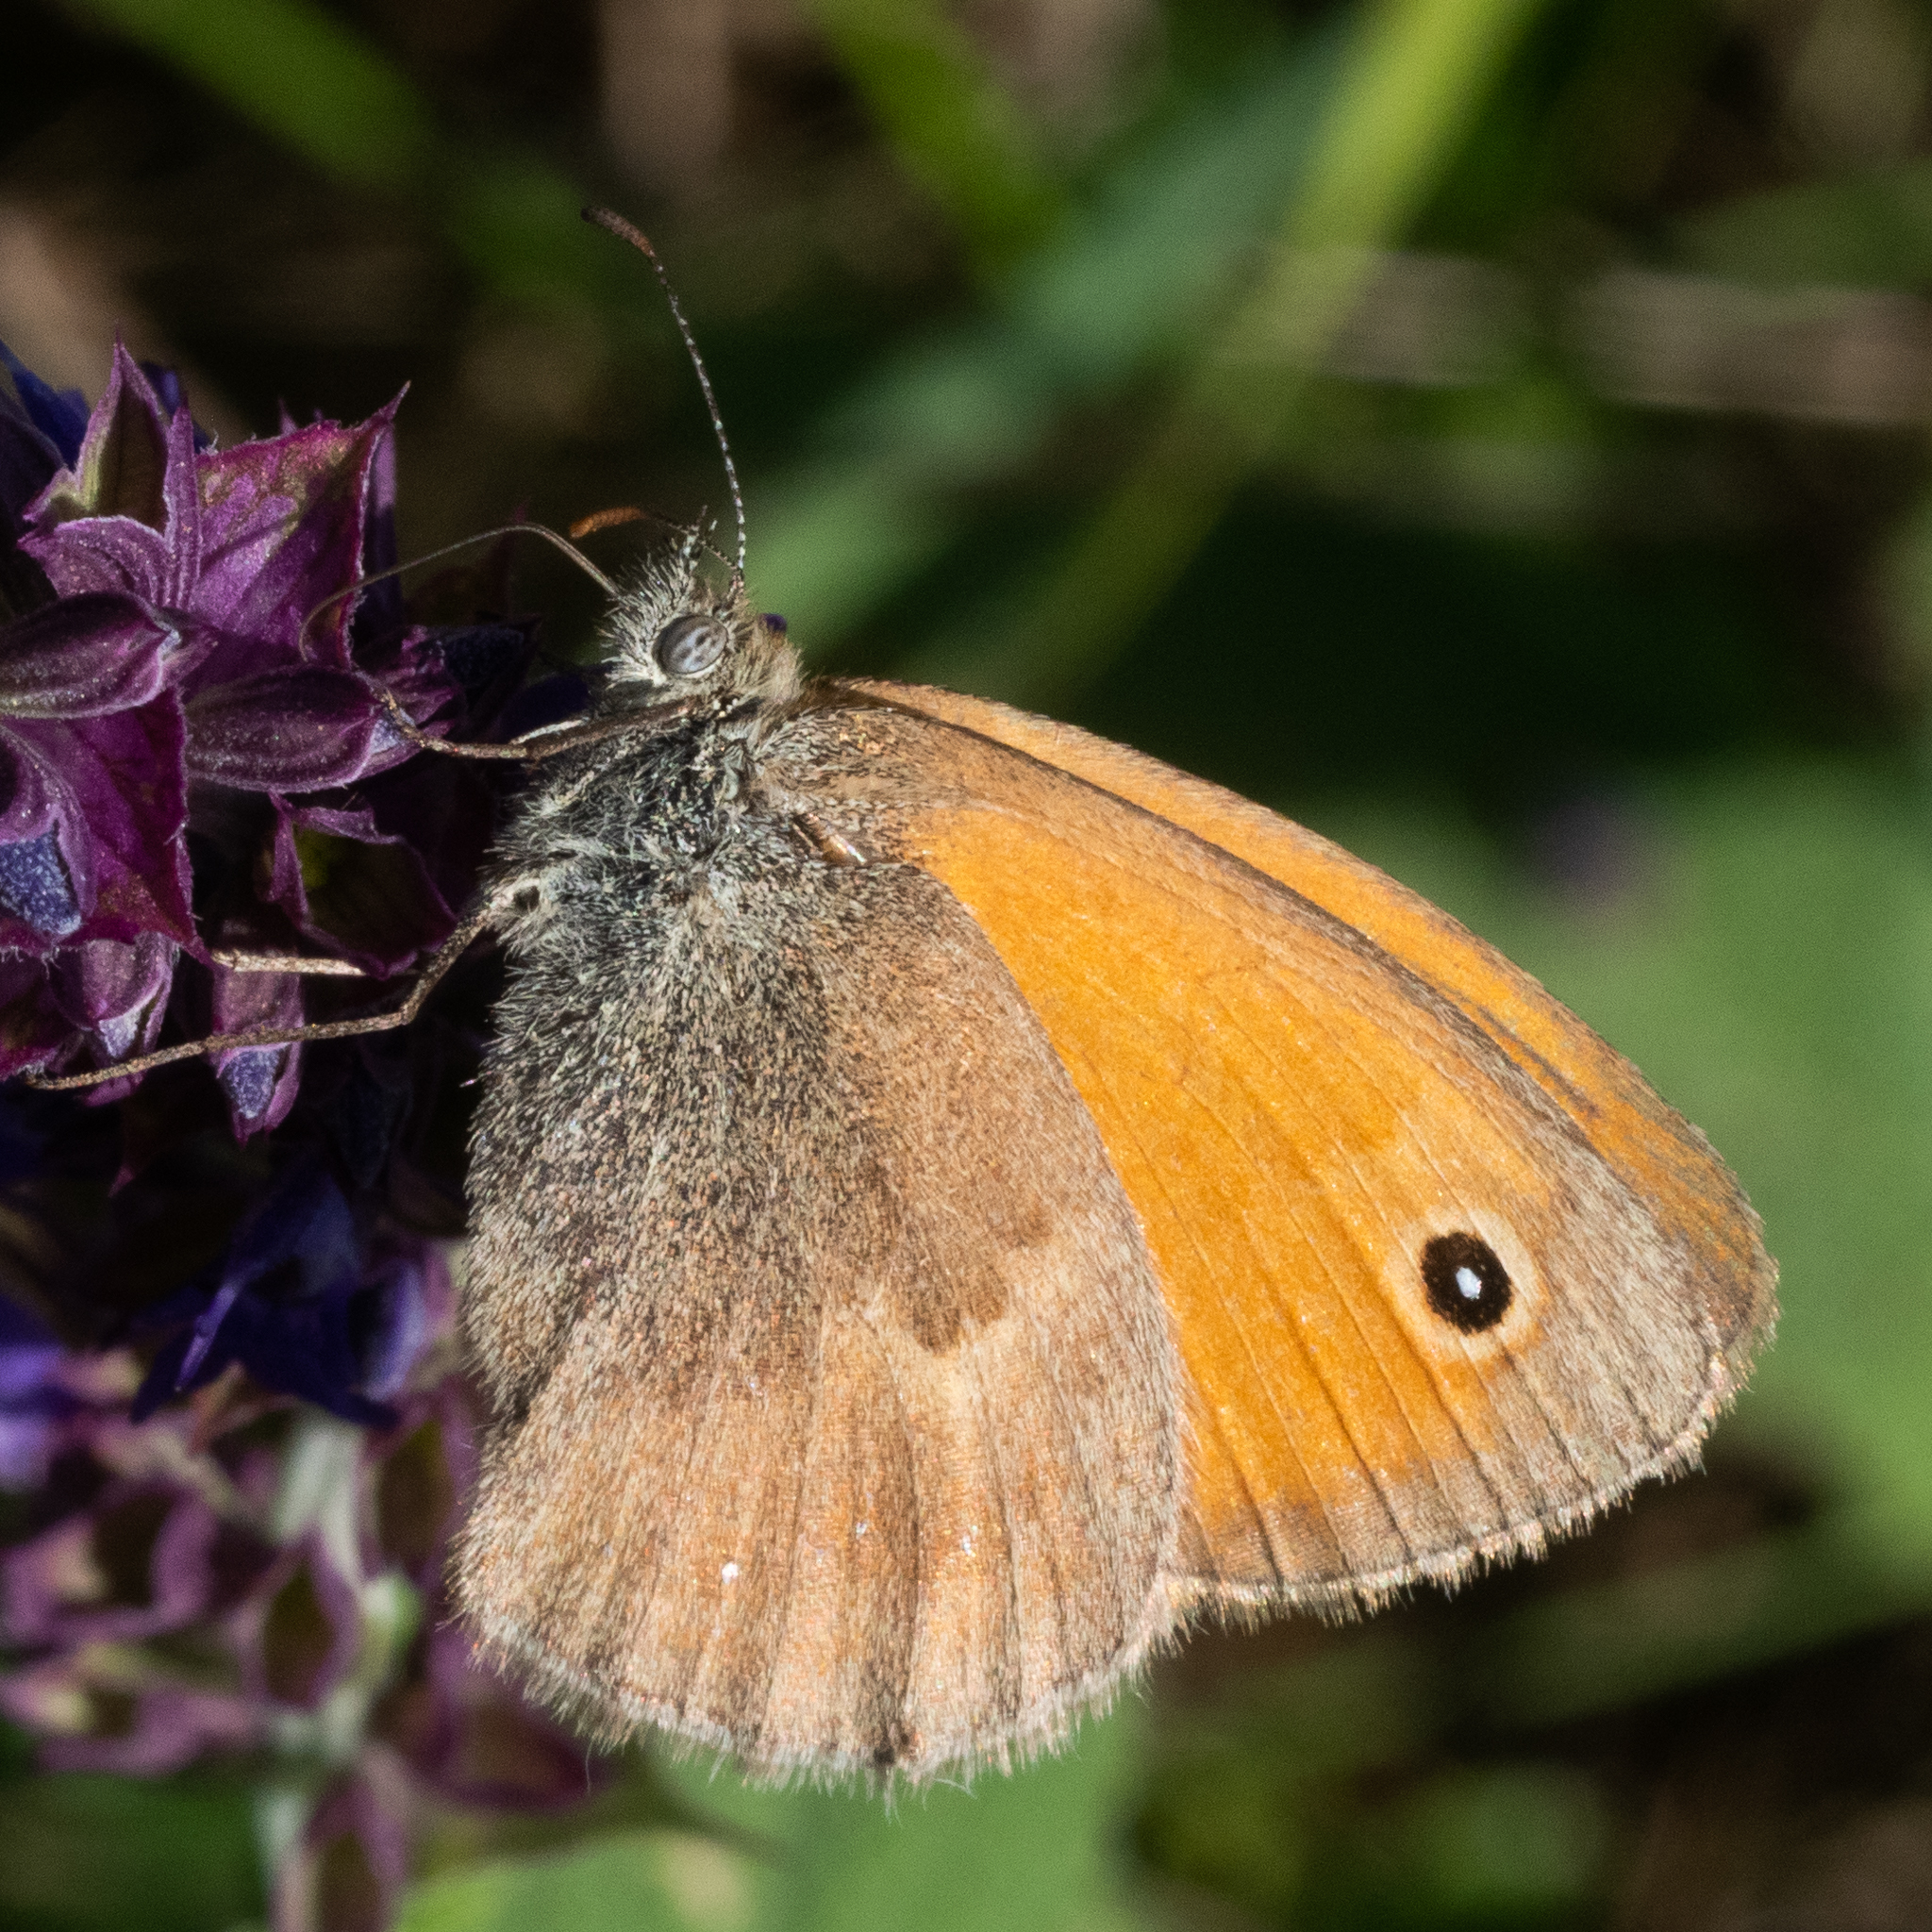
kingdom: Animalia
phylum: Arthropoda
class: Insecta
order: Lepidoptera
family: Nymphalidae
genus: Coenonympha
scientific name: Coenonympha pamphilus
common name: Small heath
